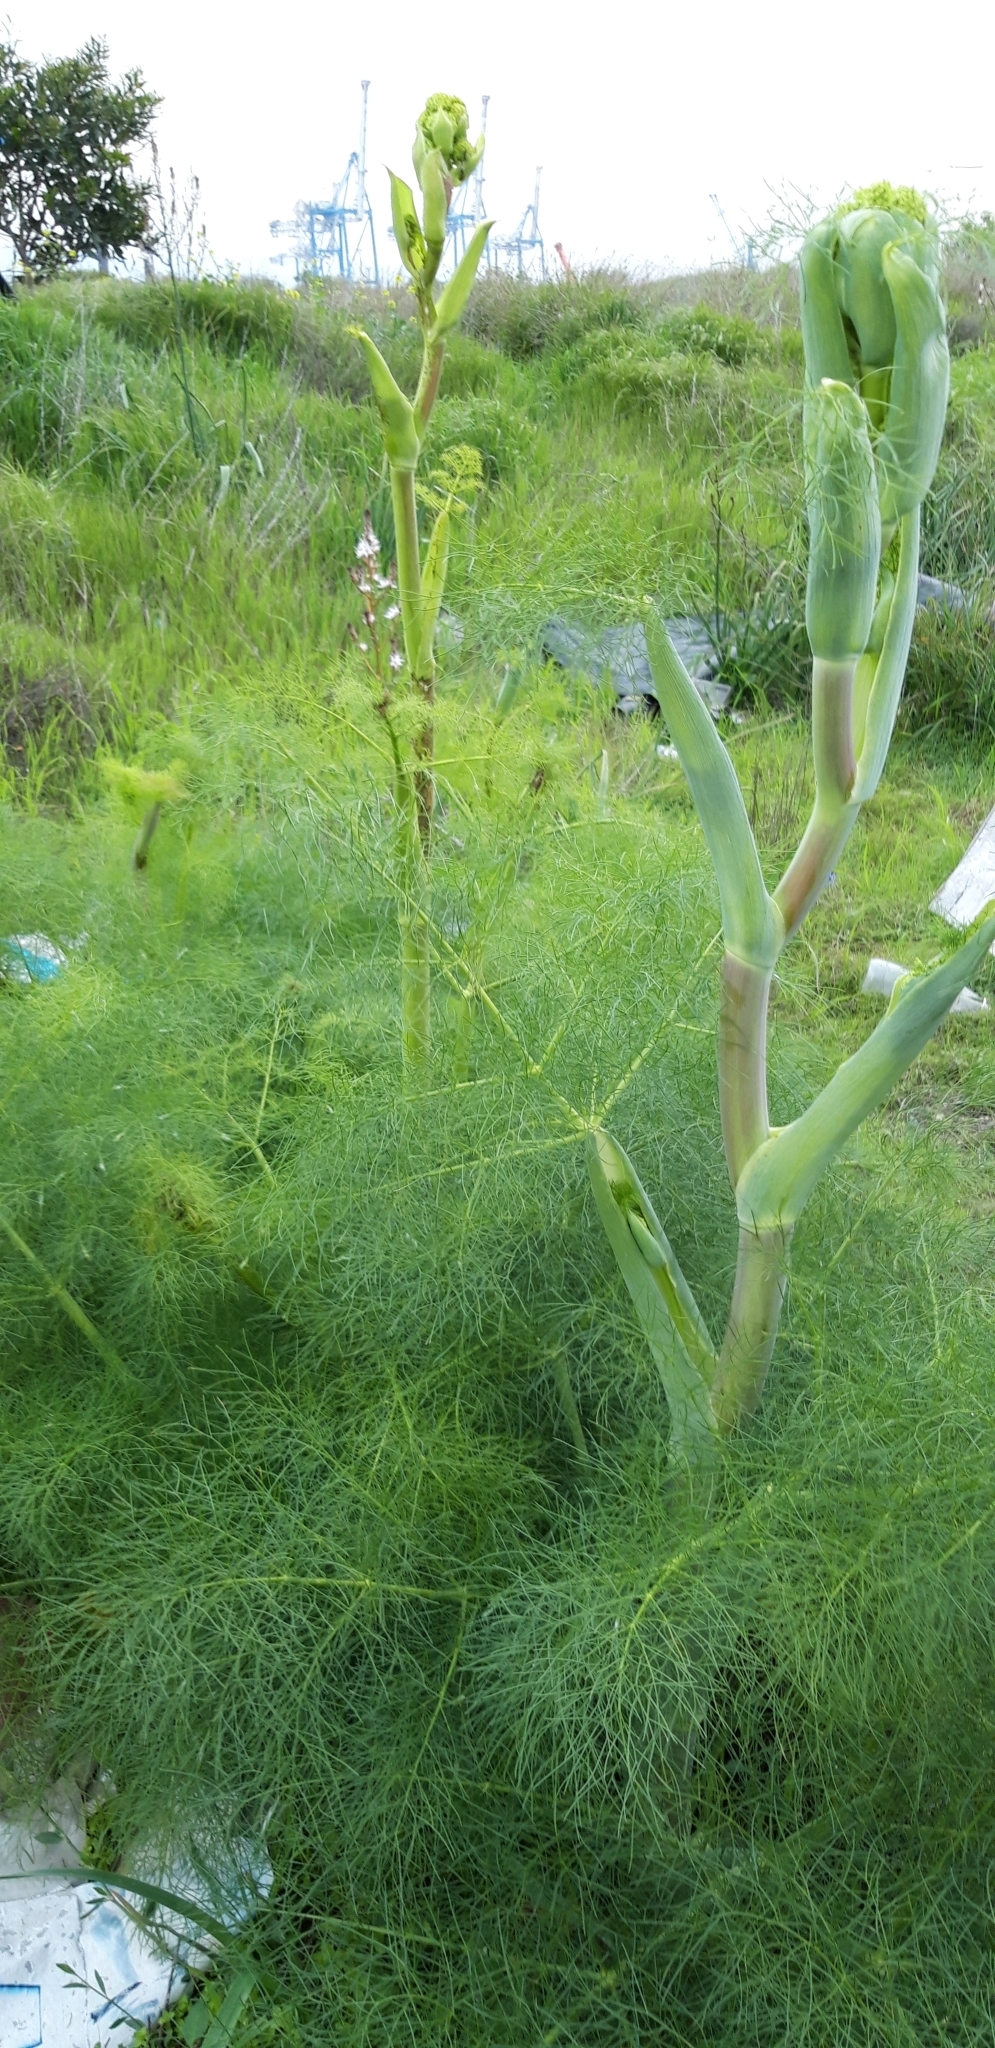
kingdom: Plantae
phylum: Tracheophyta
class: Magnoliopsida
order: Apiales
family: Apiaceae
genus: Ferula
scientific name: Ferula communis
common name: Giant fennel
